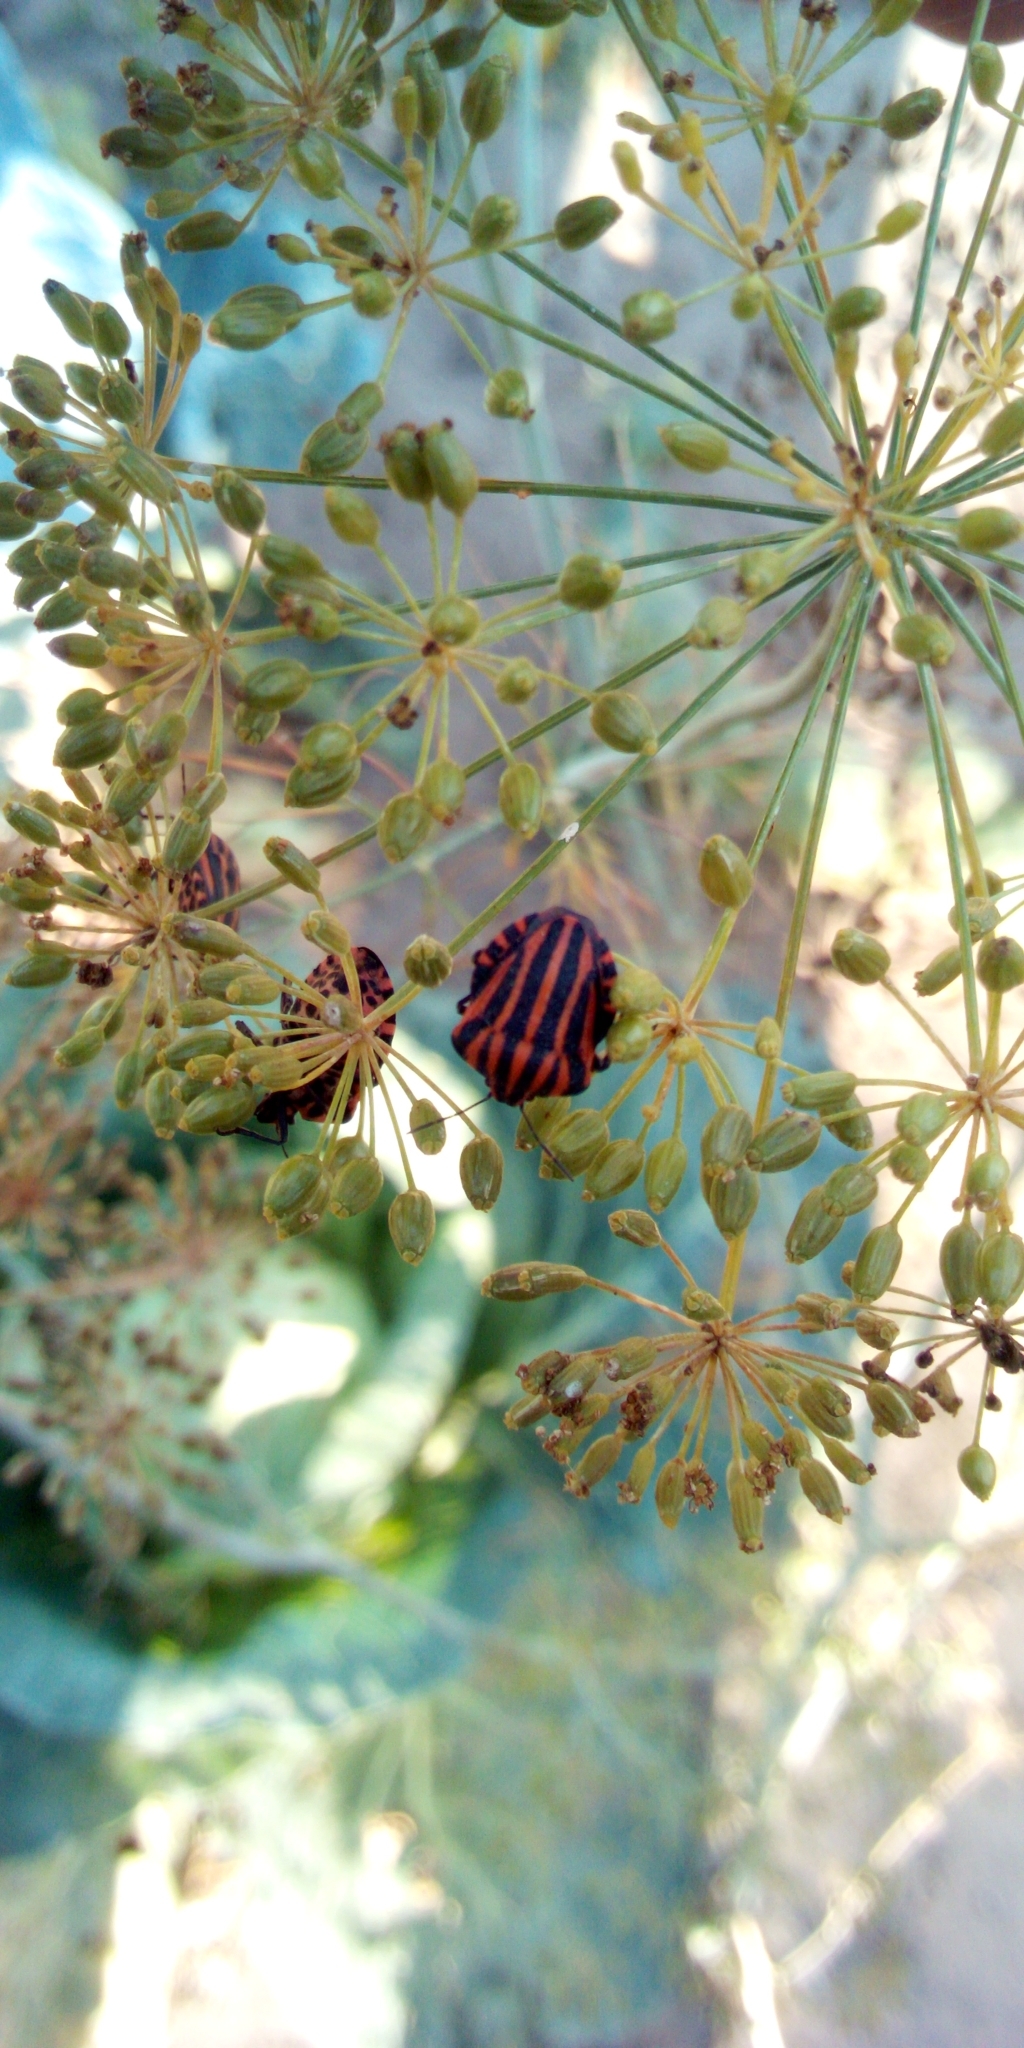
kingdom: Animalia
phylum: Arthropoda
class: Insecta
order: Hemiptera
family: Pentatomidae
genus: Graphosoma
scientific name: Graphosoma italicum
